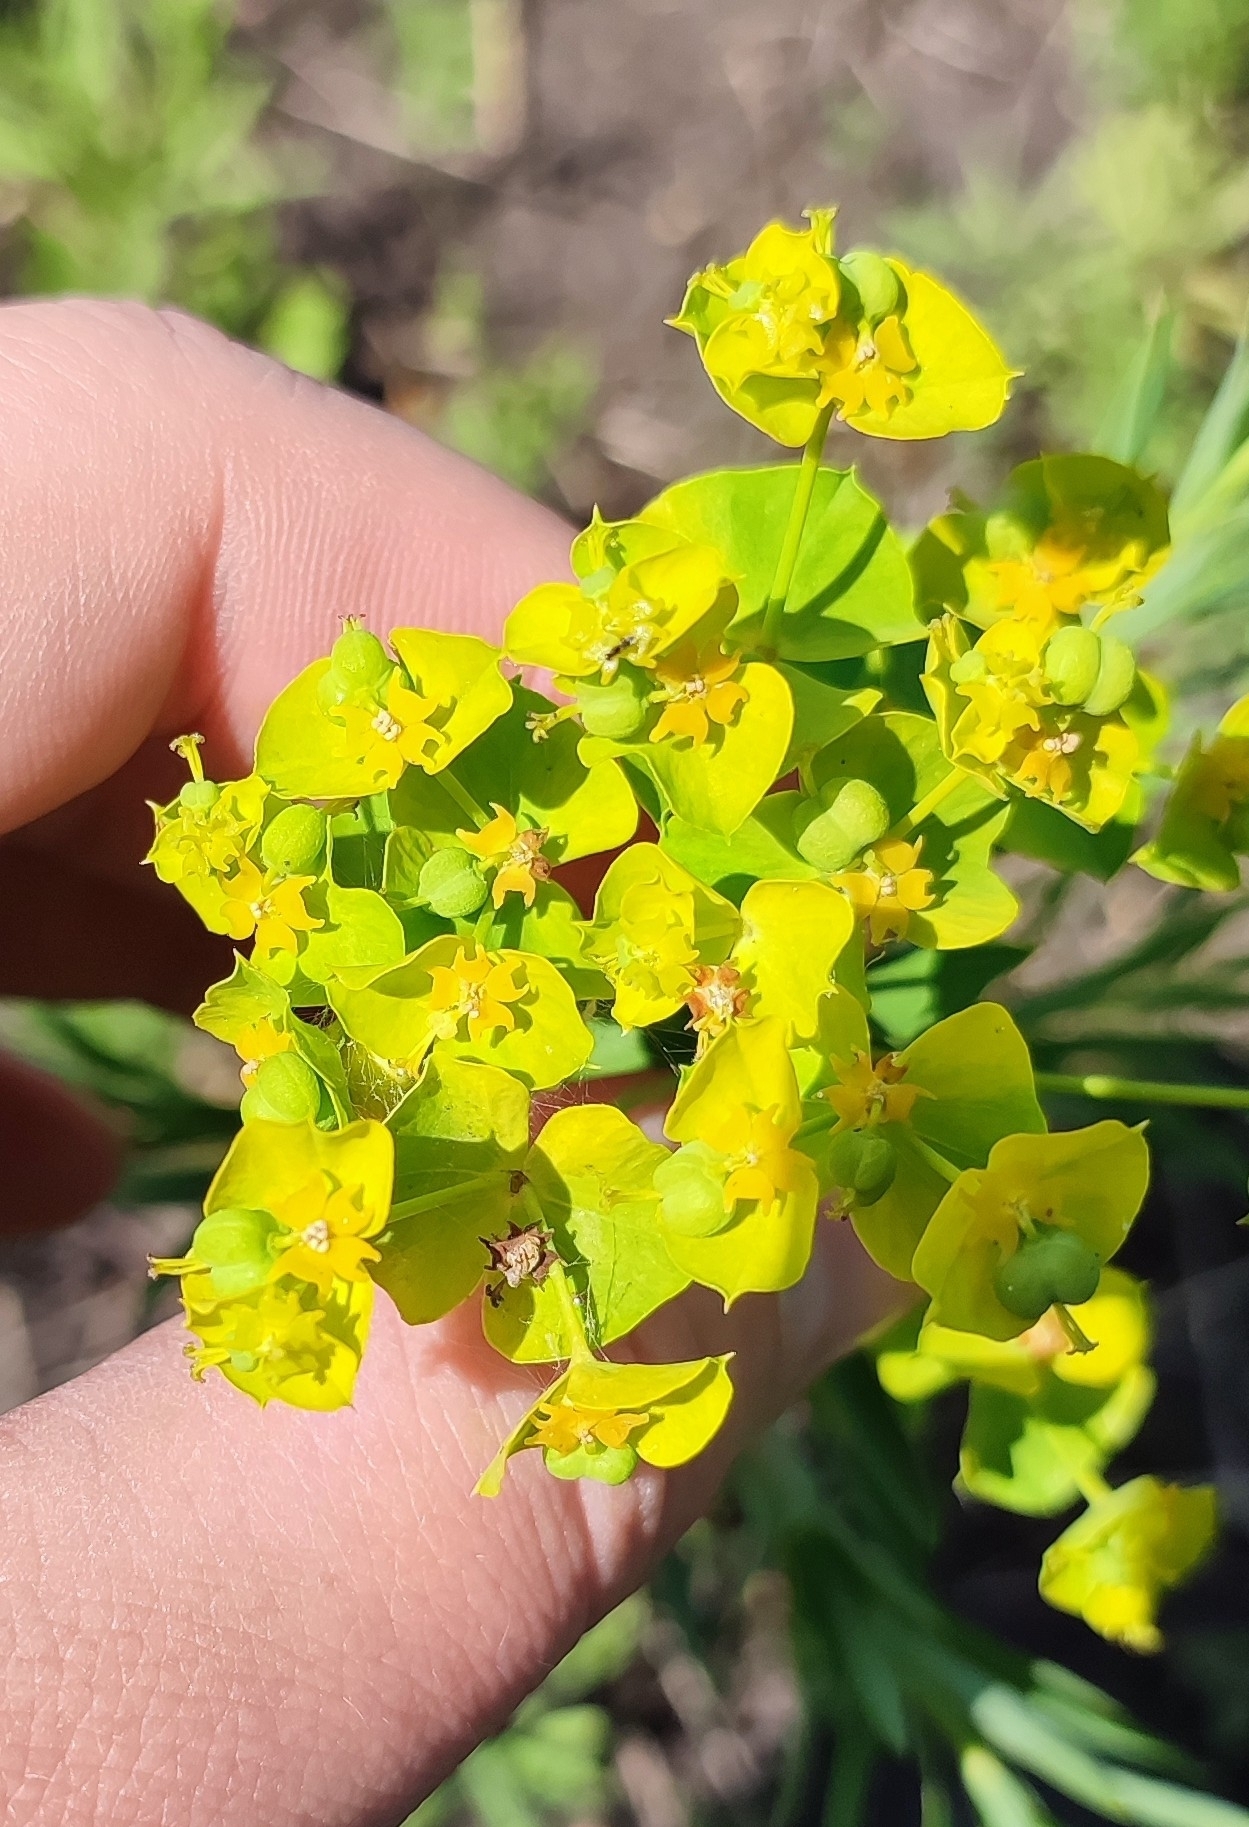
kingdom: Plantae
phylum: Tracheophyta
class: Magnoliopsida
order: Malpighiales
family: Euphorbiaceae
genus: Euphorbia
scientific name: Euphorbia virgata
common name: Leafy spurge
